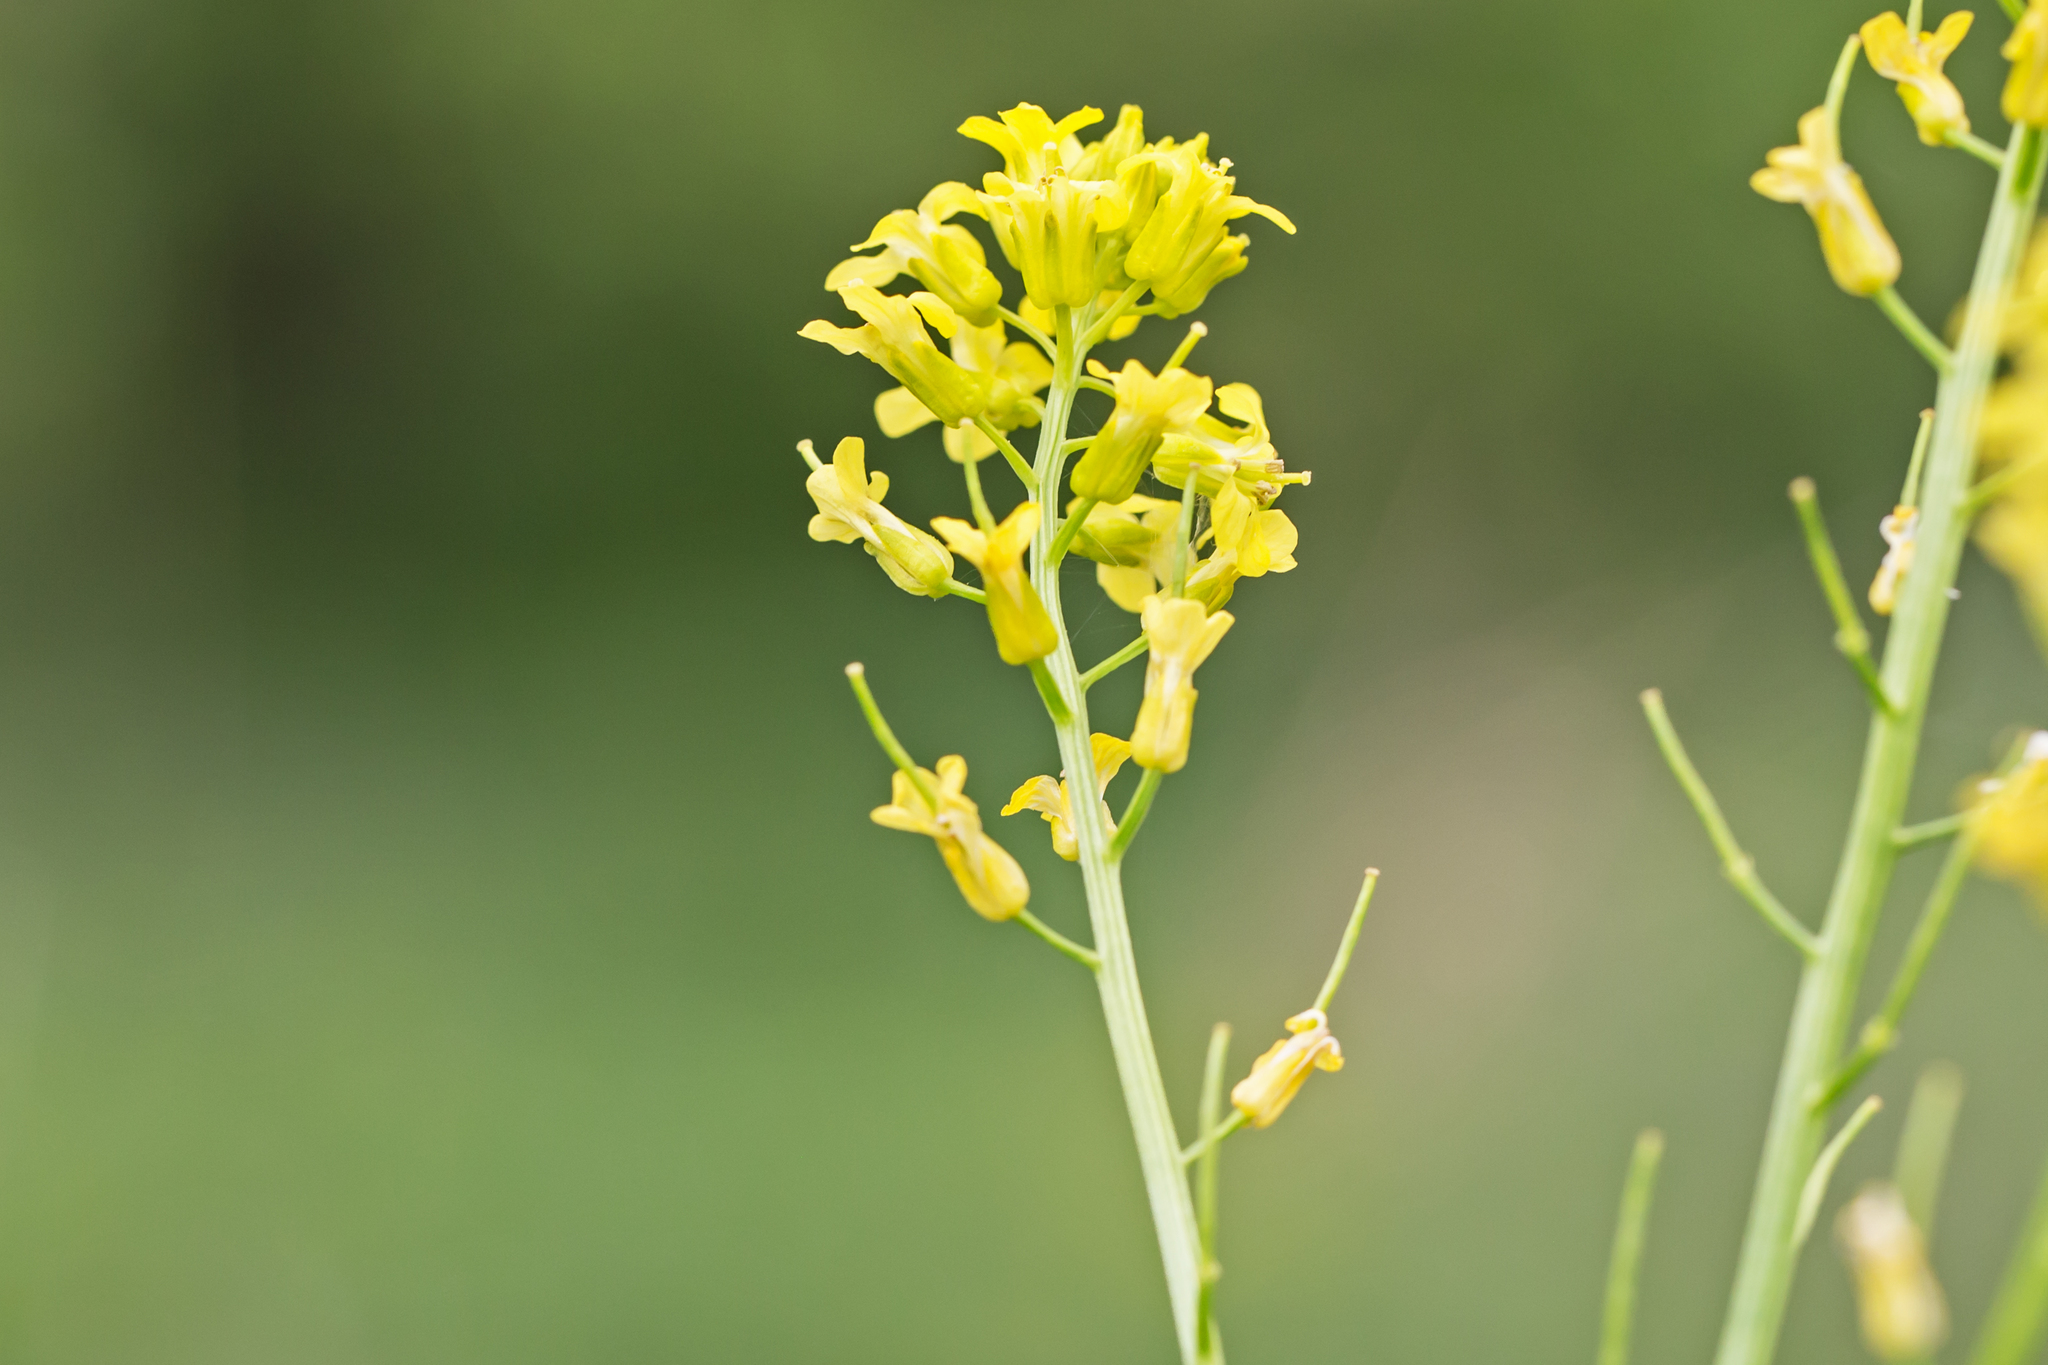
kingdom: Plantae
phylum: Tracheophyta
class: Magnoliopsida
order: Brassicales
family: Brassicaceae
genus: Barbarea
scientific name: Barbarea vulgaris
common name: Cressy-greens
